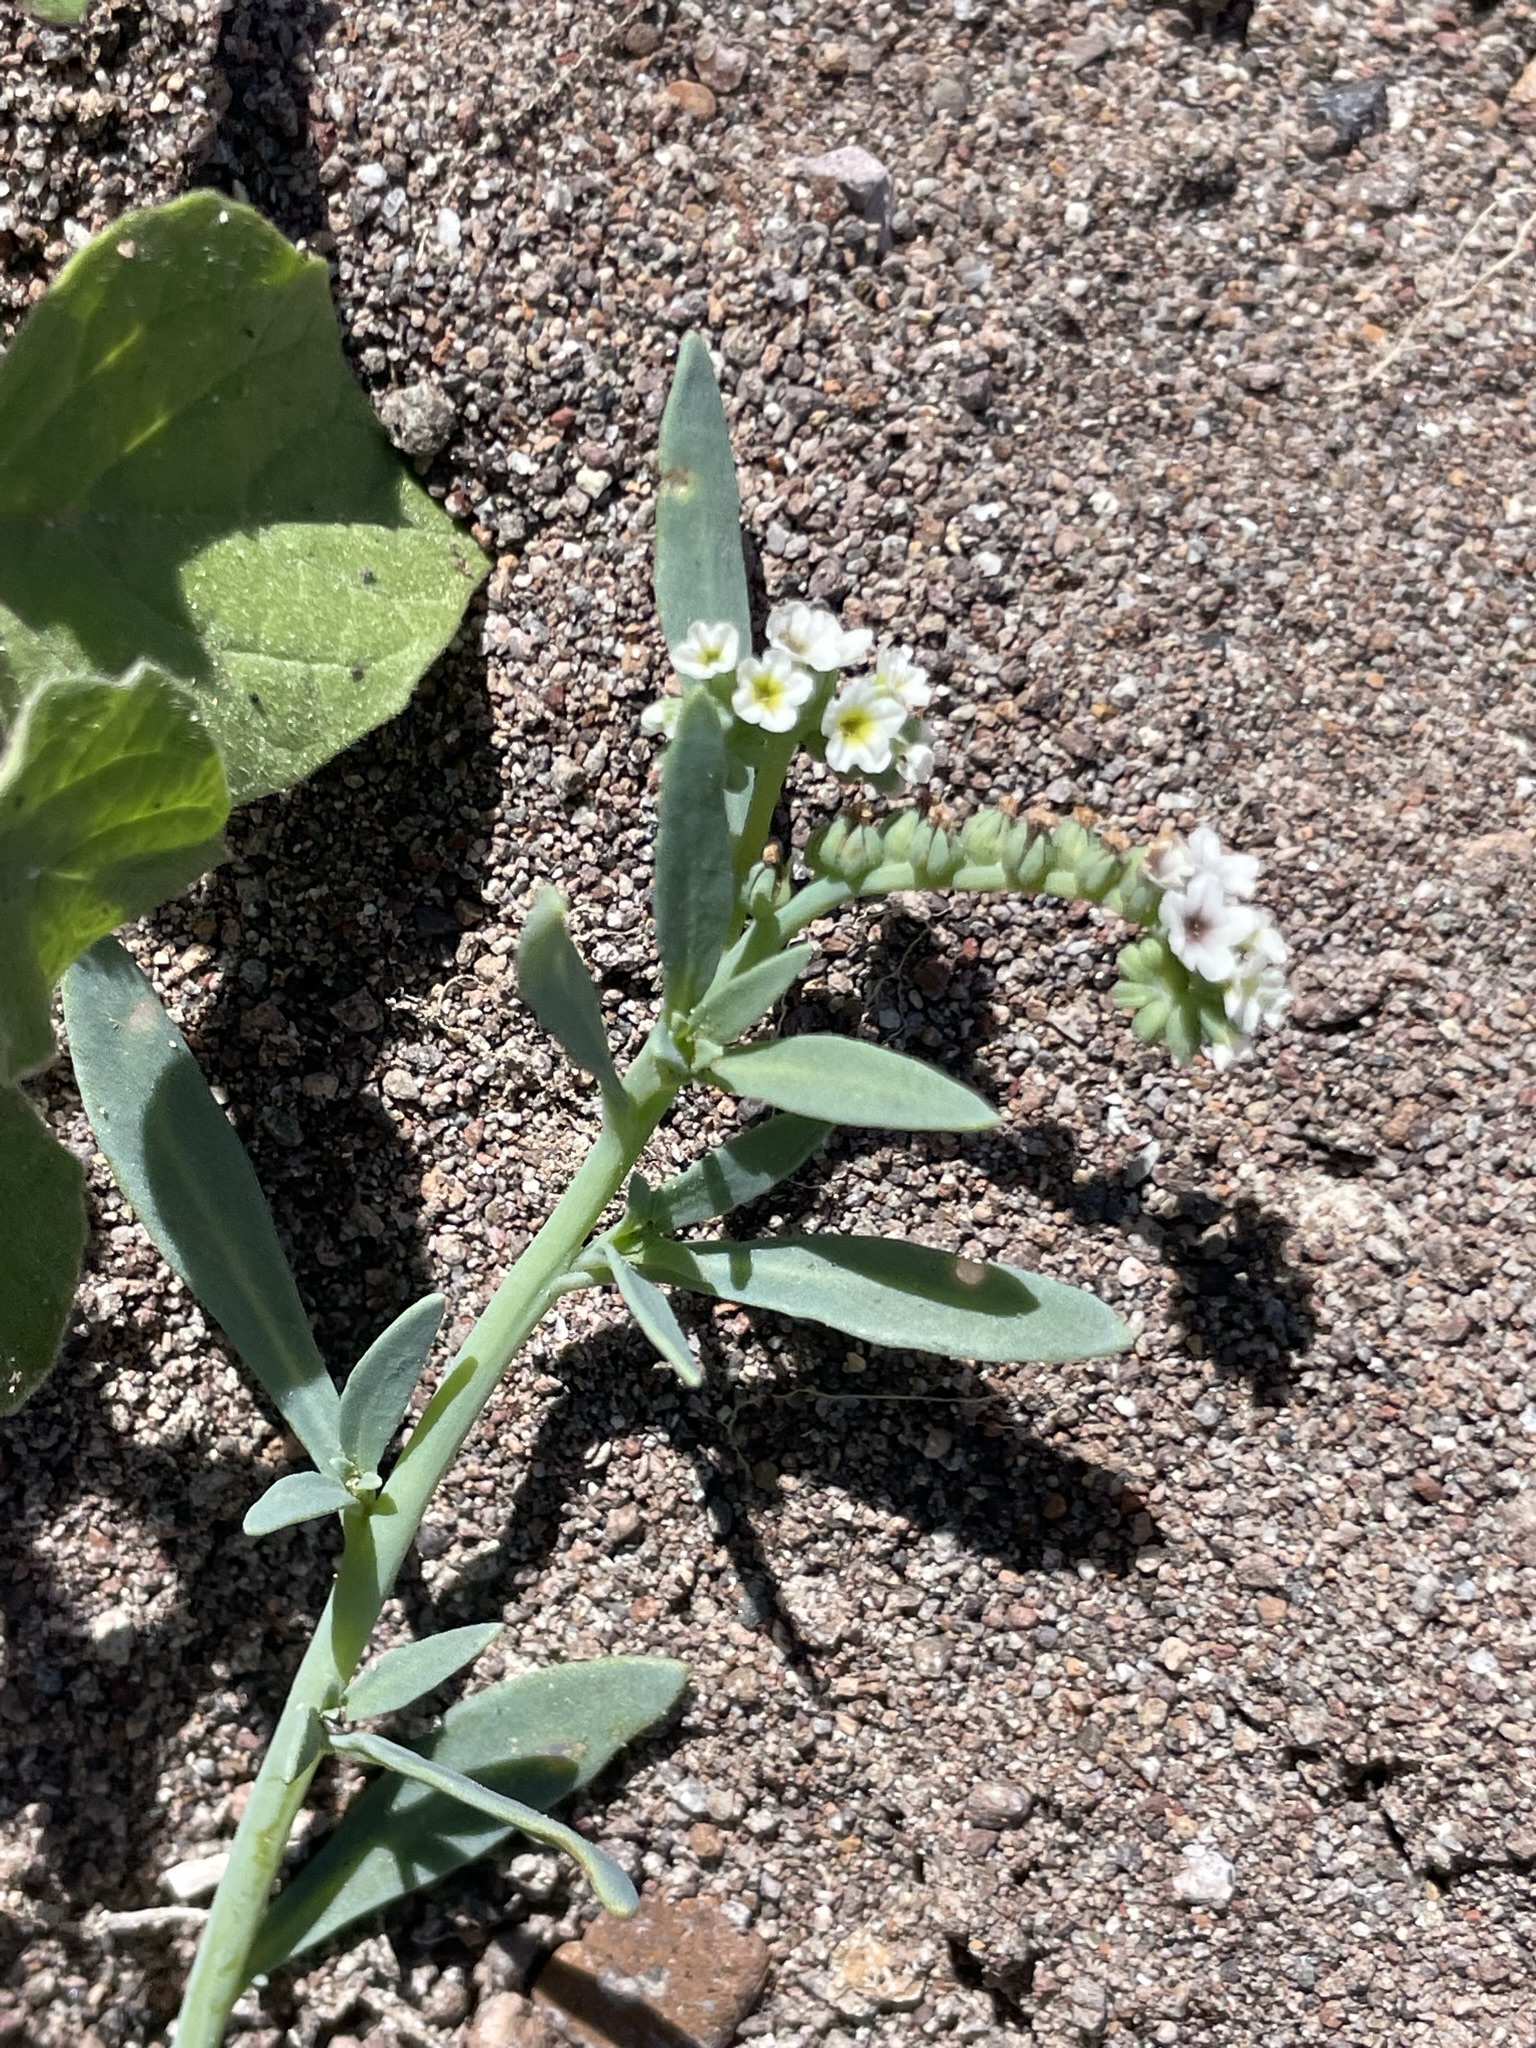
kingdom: Plantae
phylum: Tracheophyta
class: Magnoliopsida
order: Boraginales
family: Heliotropiaceae
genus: Heliotropium
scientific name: Heliotropium curassavicum
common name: Seaside heliotrope
